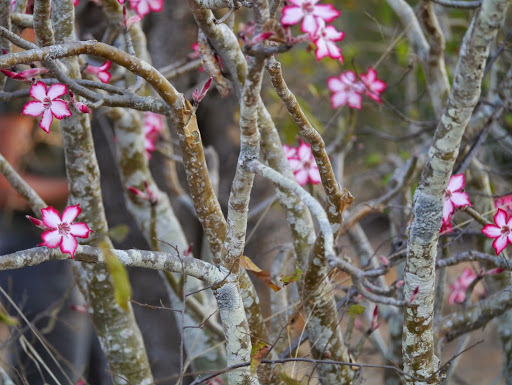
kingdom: Plantae
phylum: Tracheophyta
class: Magnoliopsida
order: Gentianales
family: Apocynaceae
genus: Adenium
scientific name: Adenium obesum
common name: Desert-rose
